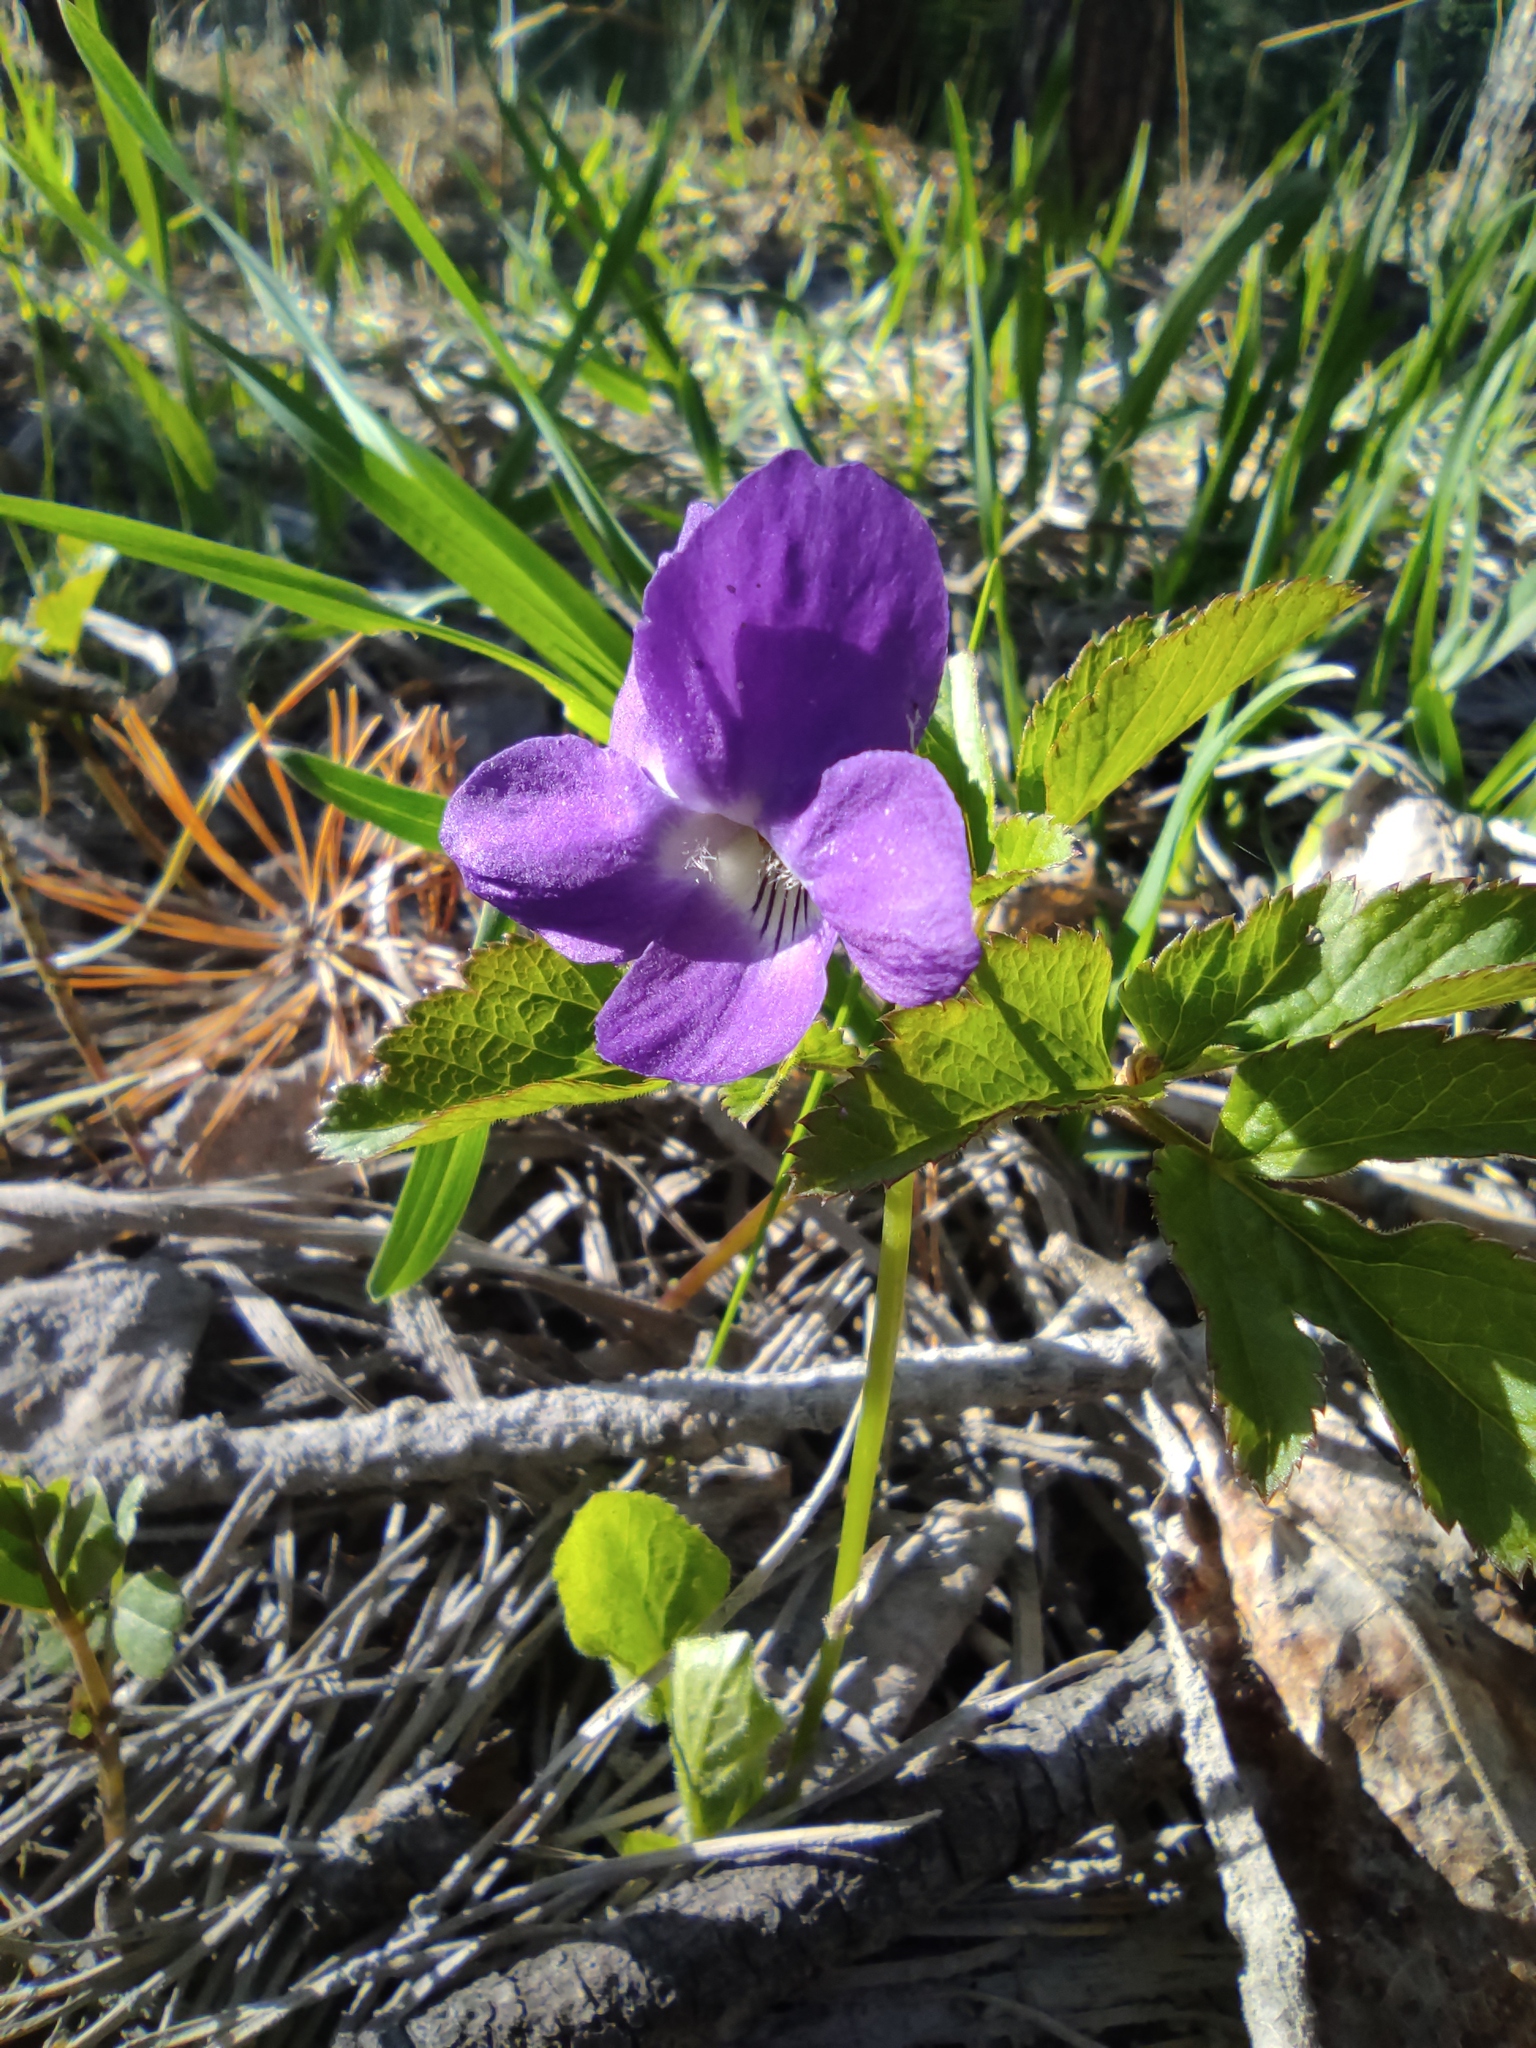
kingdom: Plantae
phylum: Tracheophyta
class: Magnoliopsida
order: Apiales
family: Apiaceae
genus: Aegopodium
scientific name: Aegopodium podagraria
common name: Ground-elder
